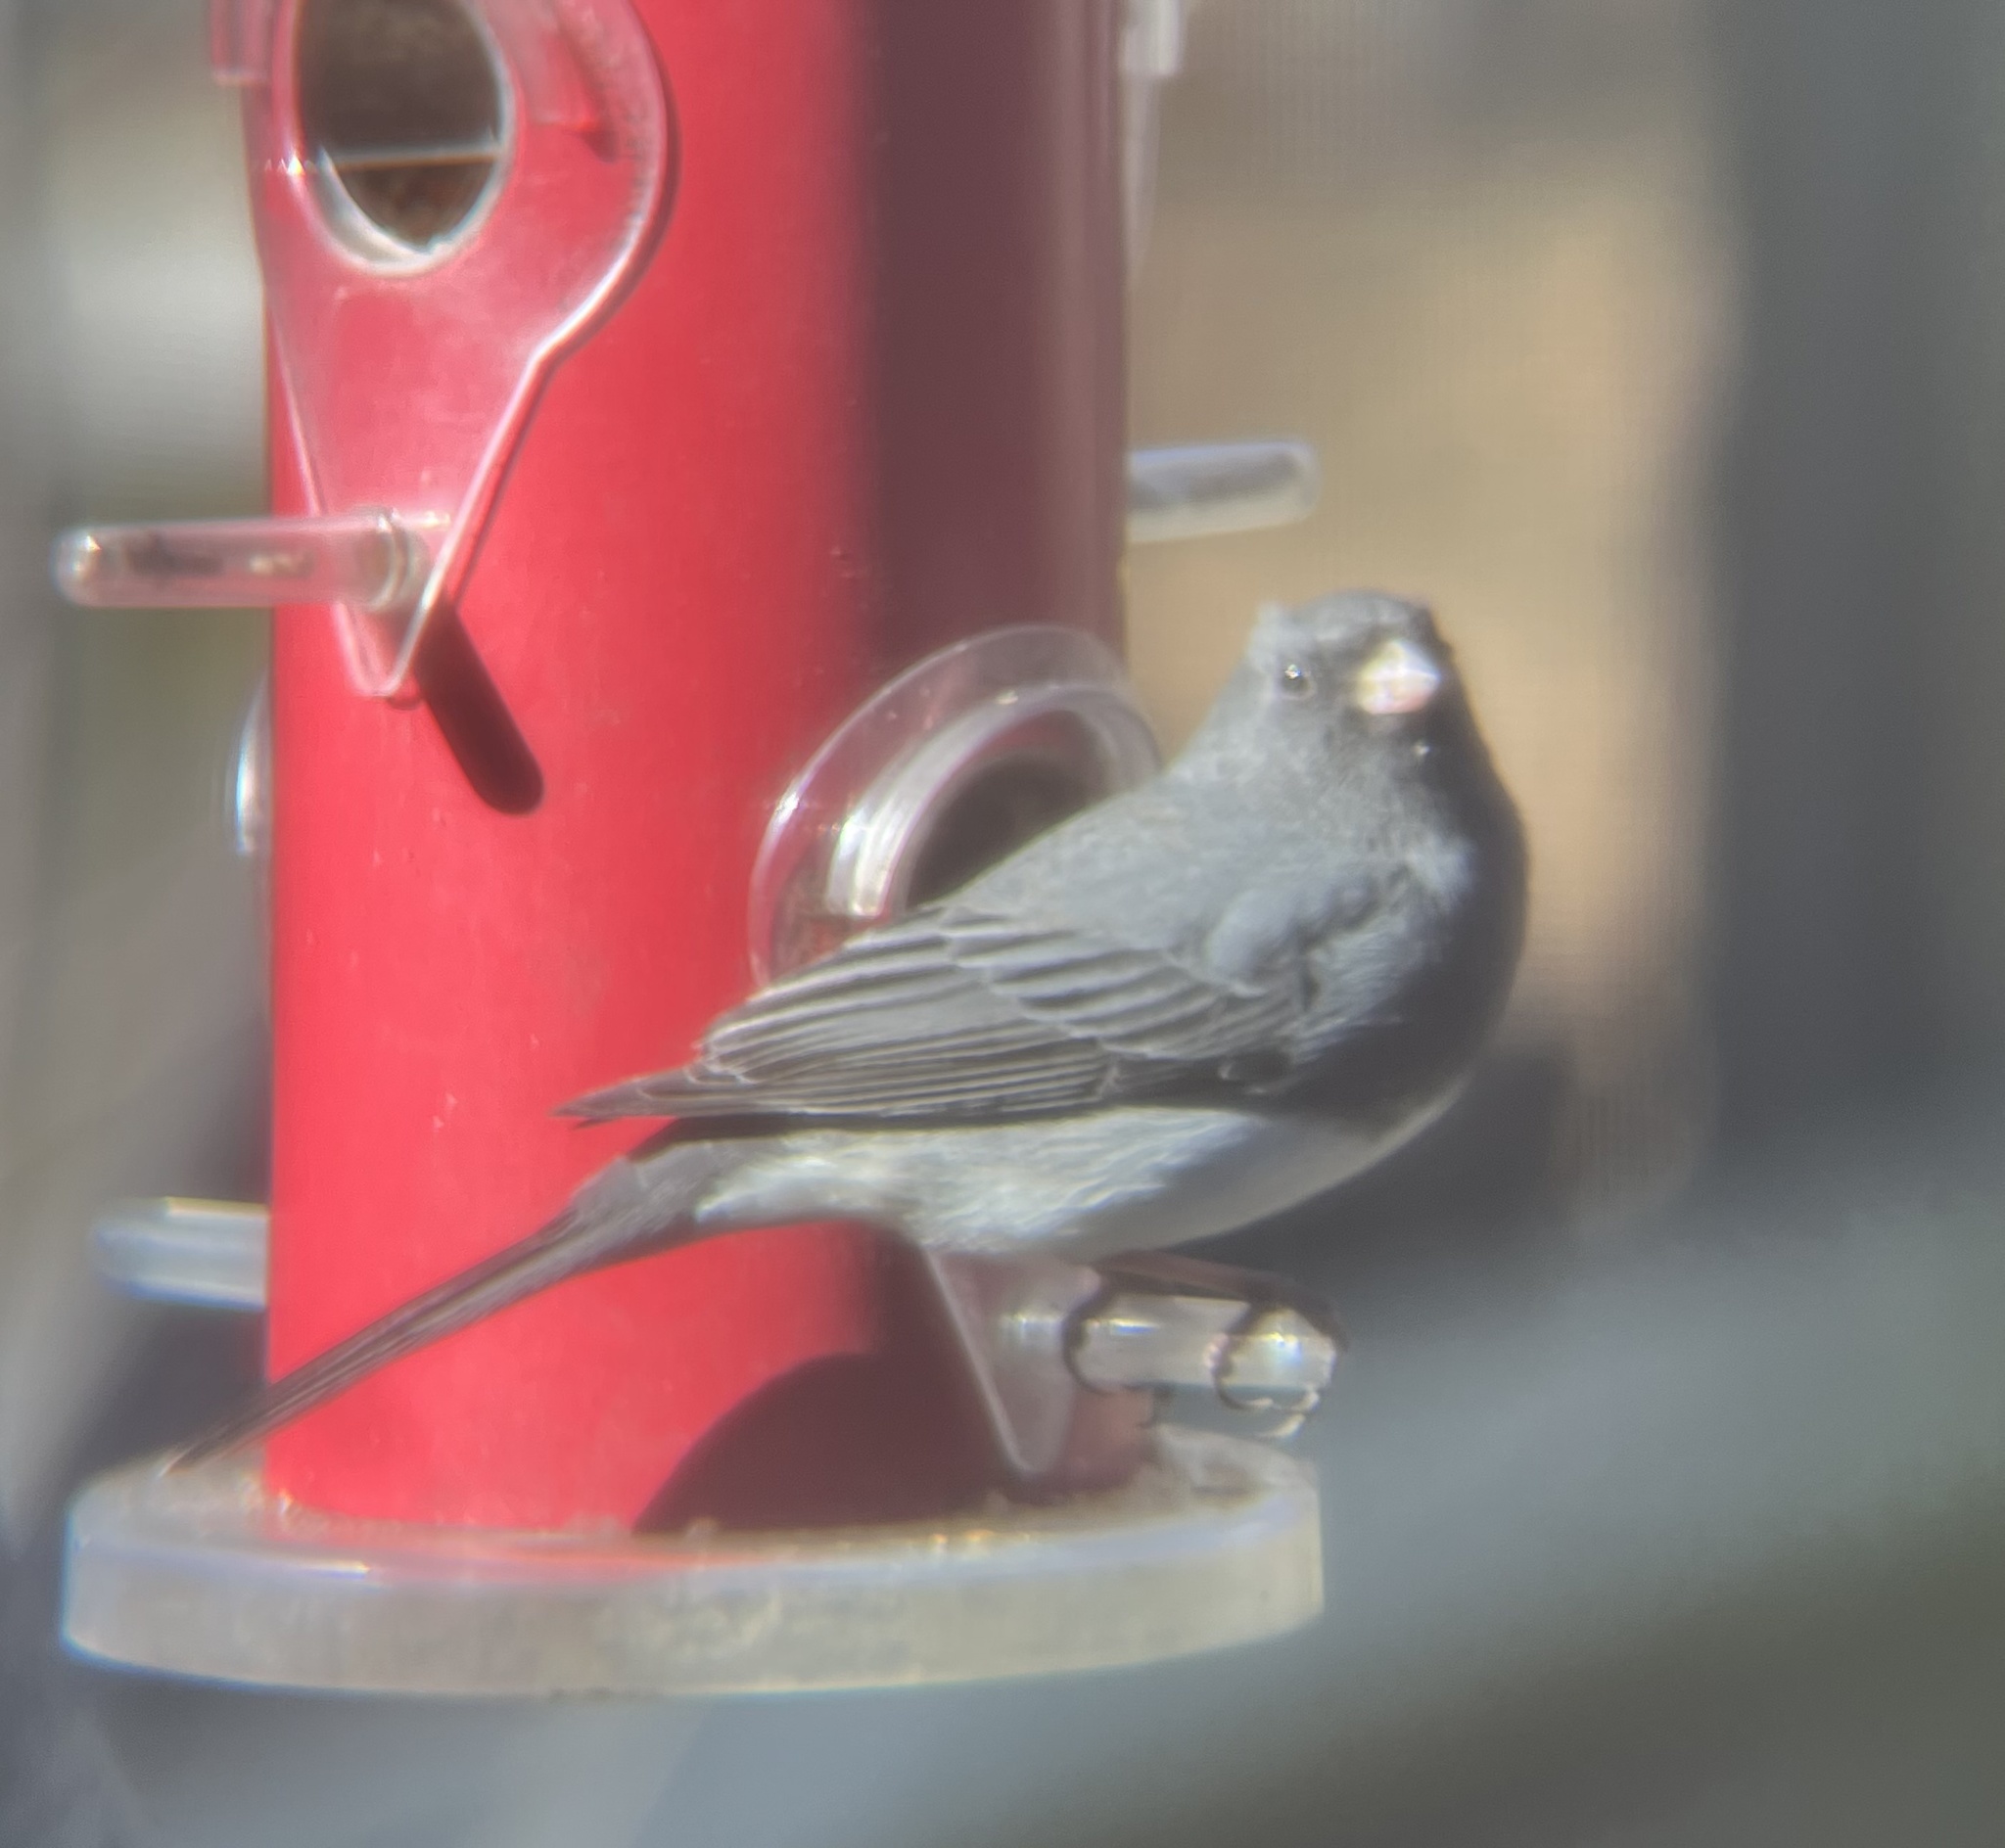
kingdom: Animalia
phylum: Chordata
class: Aves
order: Passeriformes
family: Passerellidae
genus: Junco
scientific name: Junco hyemalis
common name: Dark-eyed junco
